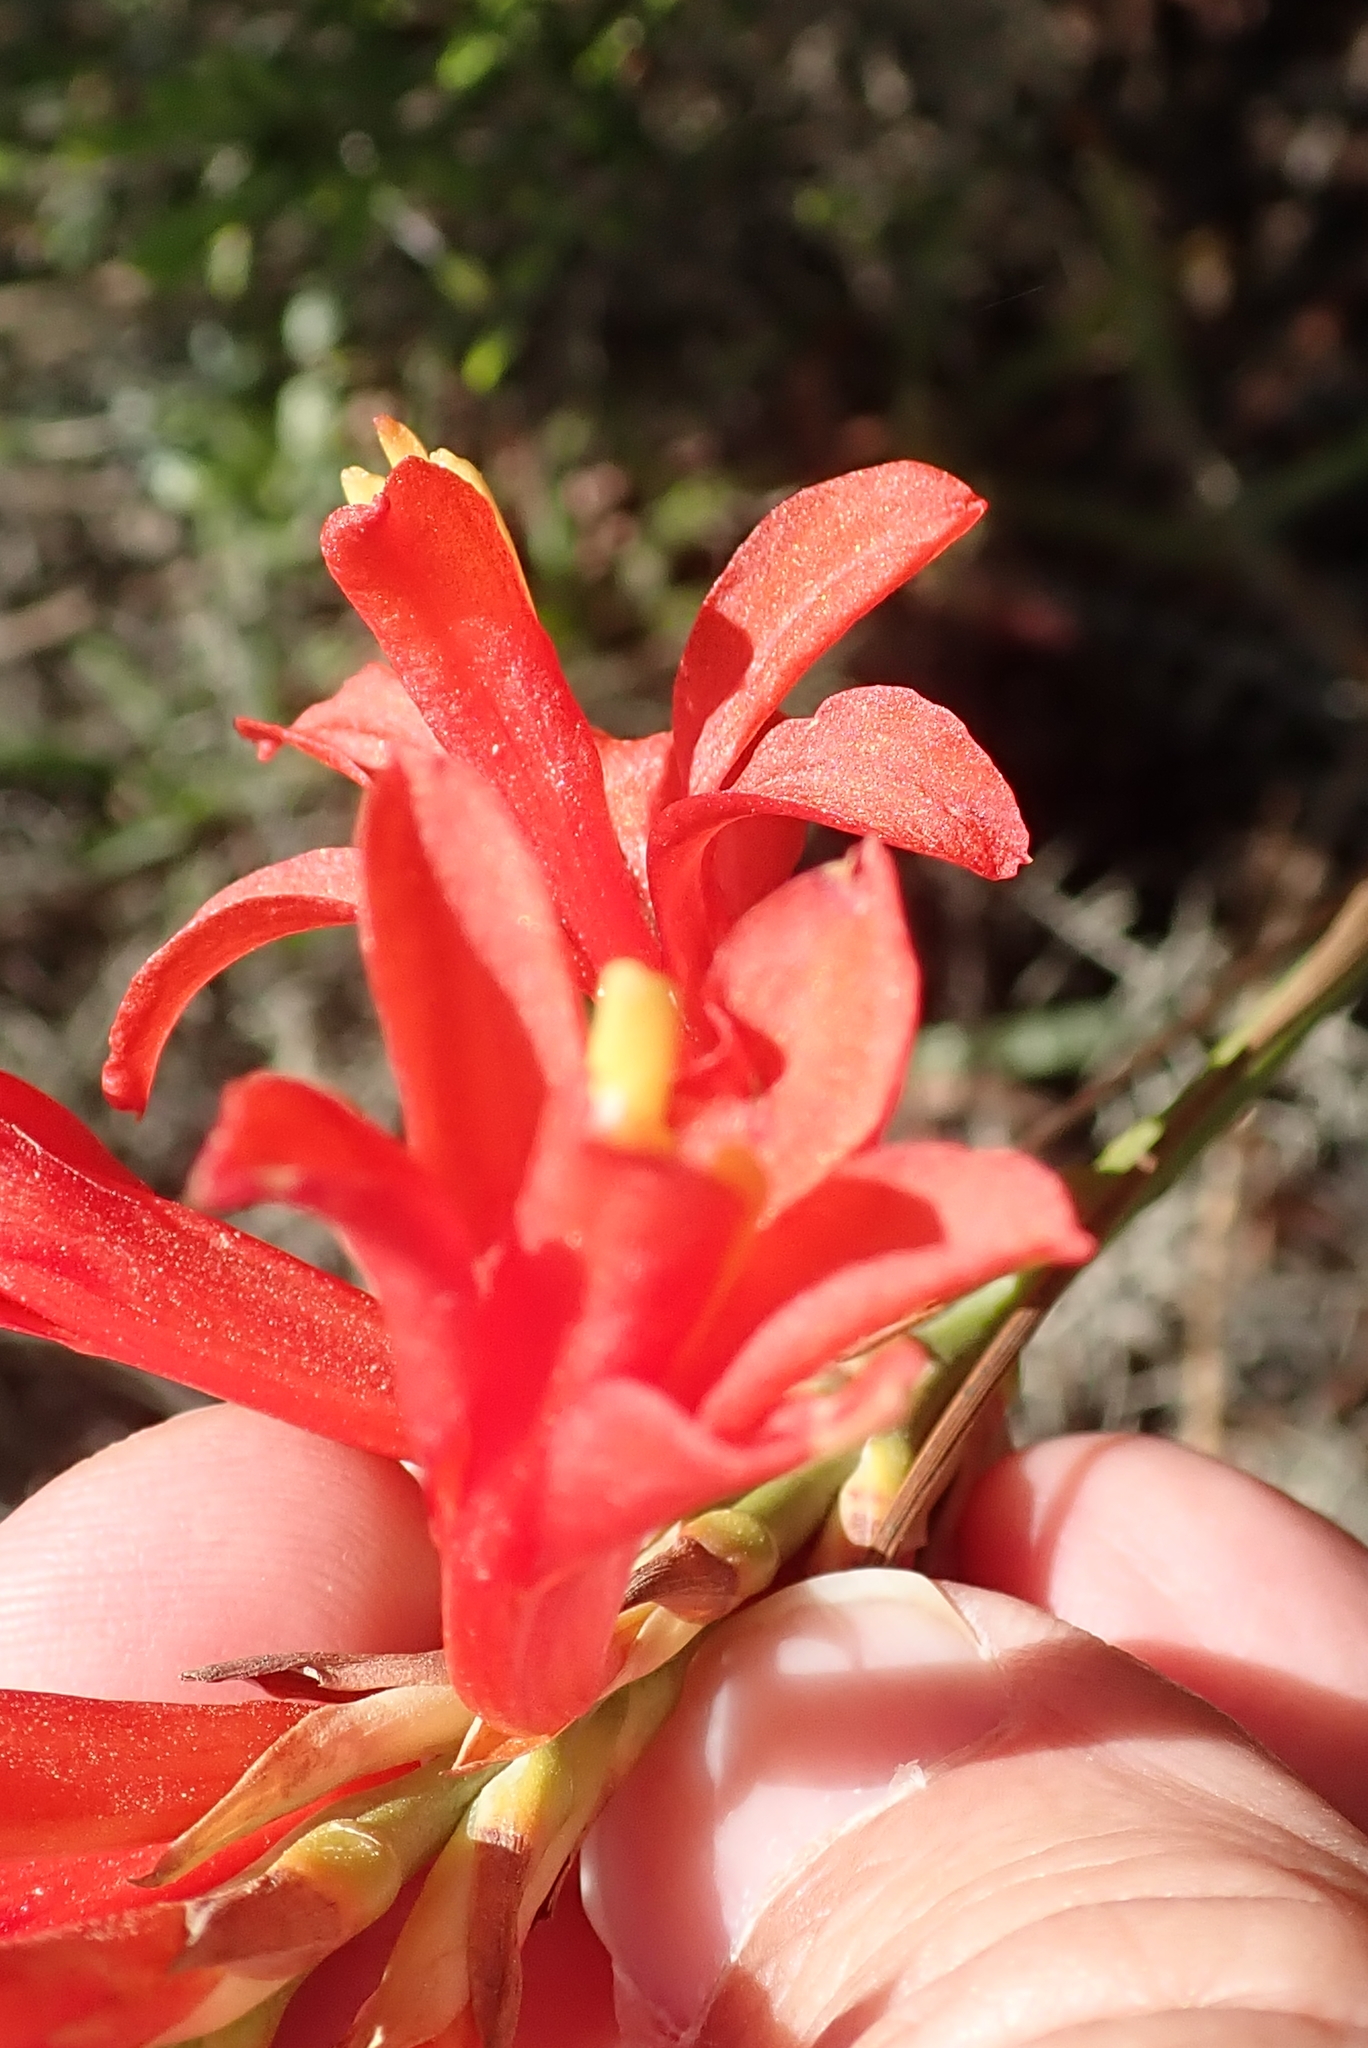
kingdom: Plantae
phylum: Tracheophyta
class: Liliopsida
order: Asparagales
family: Iridaceae
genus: Tritoniopsis
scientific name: Tritoniopsis antholyza
